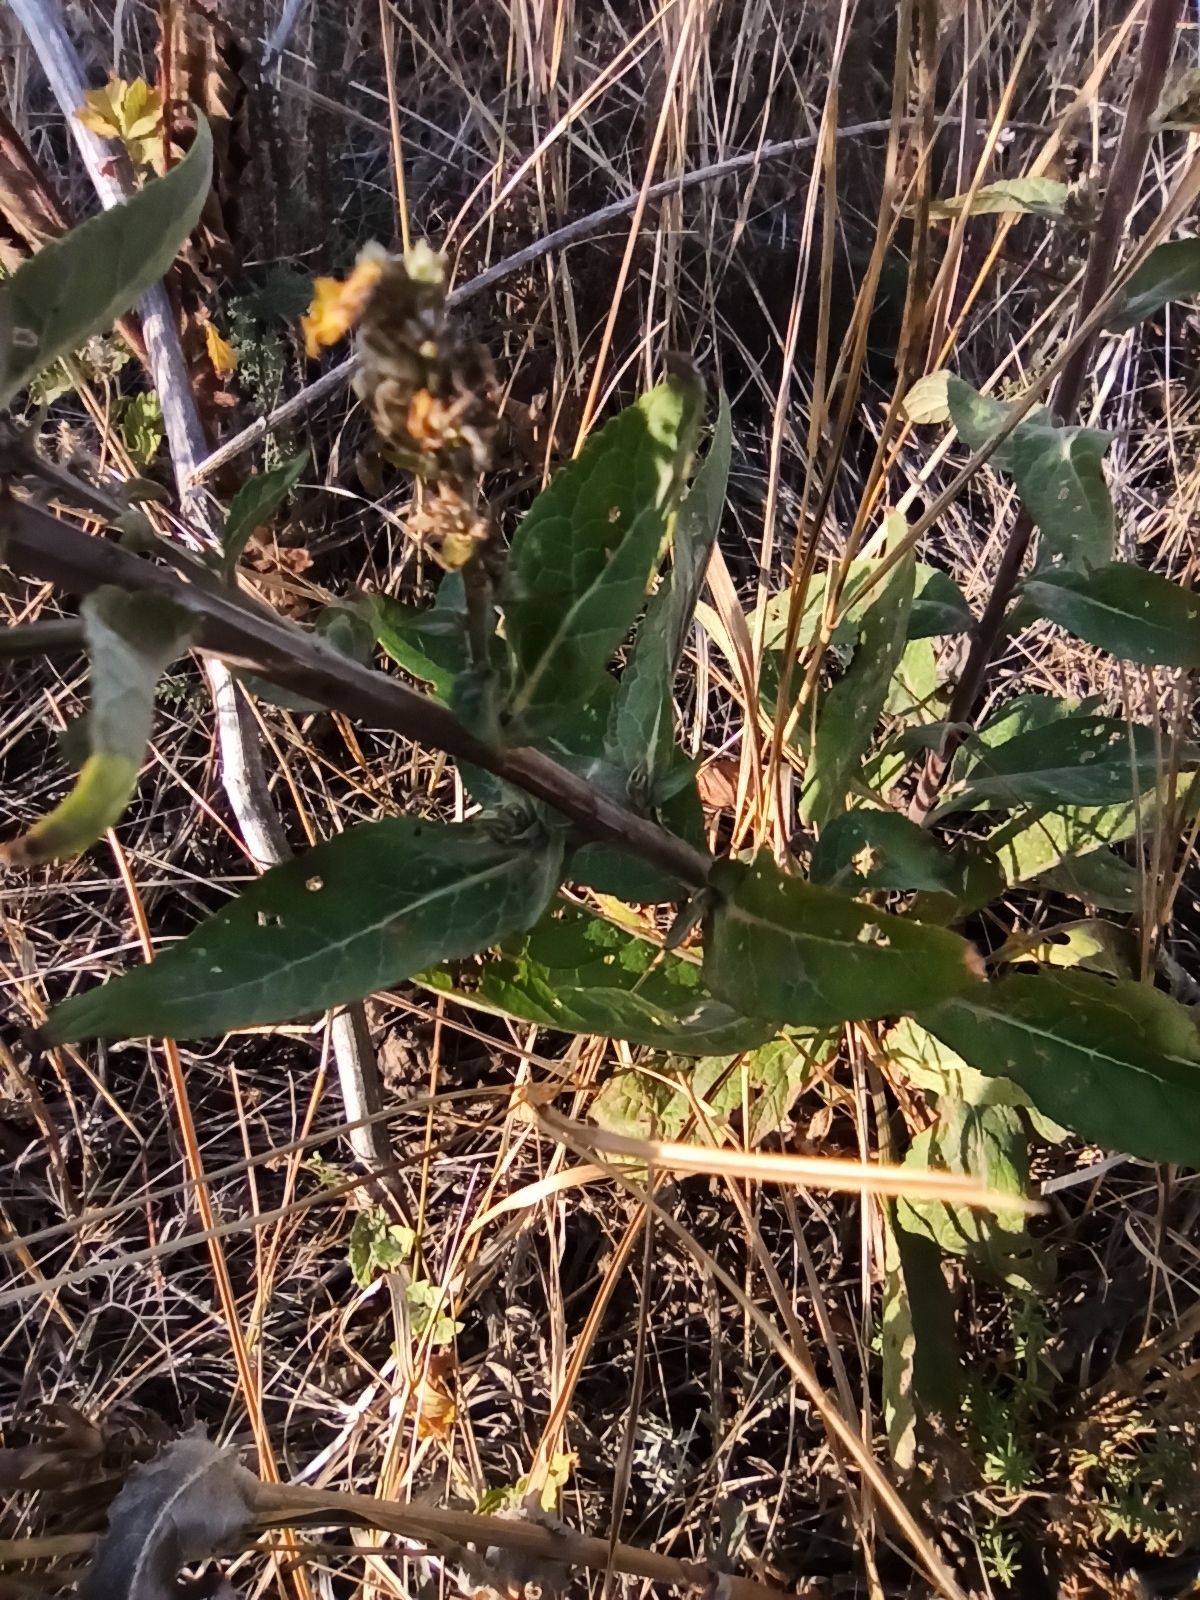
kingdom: Plantae
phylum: Tracheophyta
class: Magnoliopsida
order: Lamiales
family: Scrophulariaceae
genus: Verbascum
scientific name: Verbascum lychnitis
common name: White mullein
